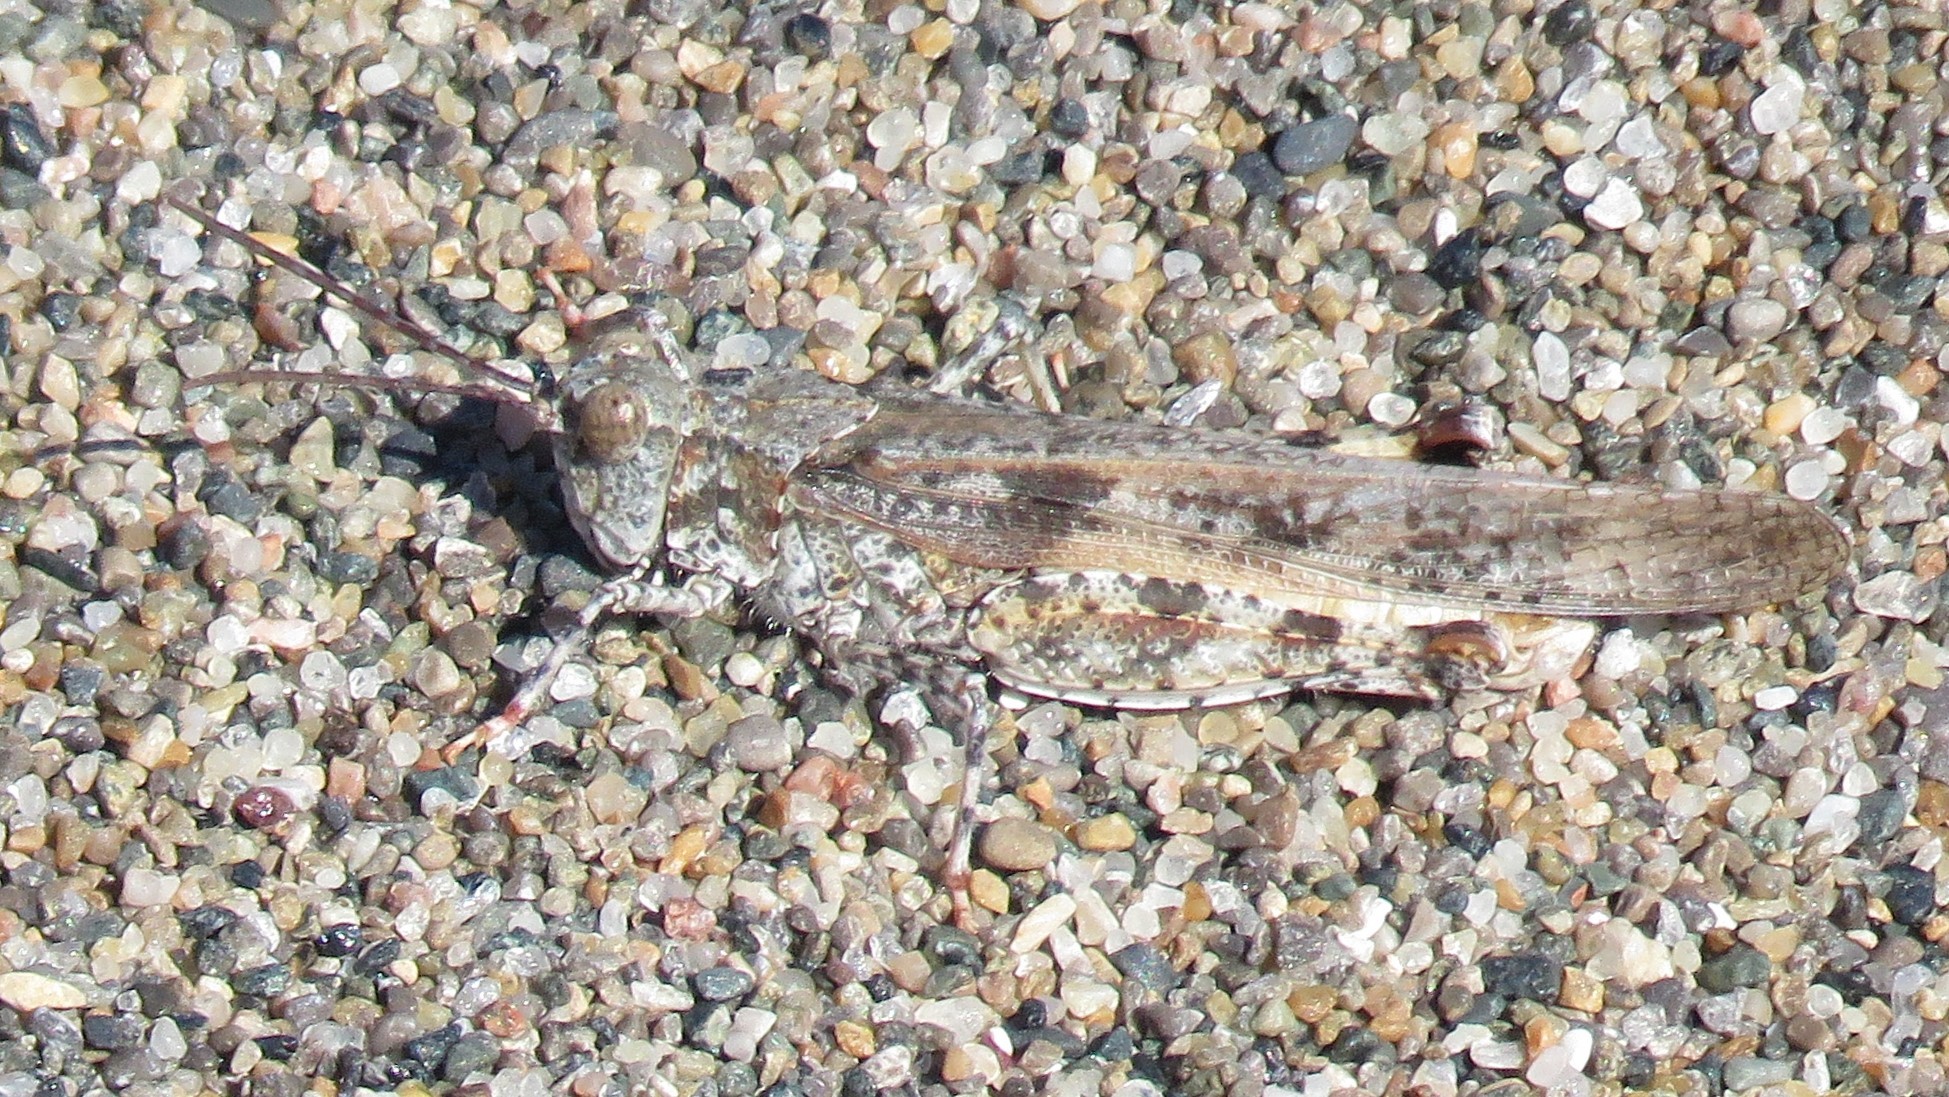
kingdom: Animalia
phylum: Arthropoda
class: Insecta
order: Orthoptera
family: Acrididae
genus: Trimerotropis
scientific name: Trimerotropis maritima
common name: Seaside locust
